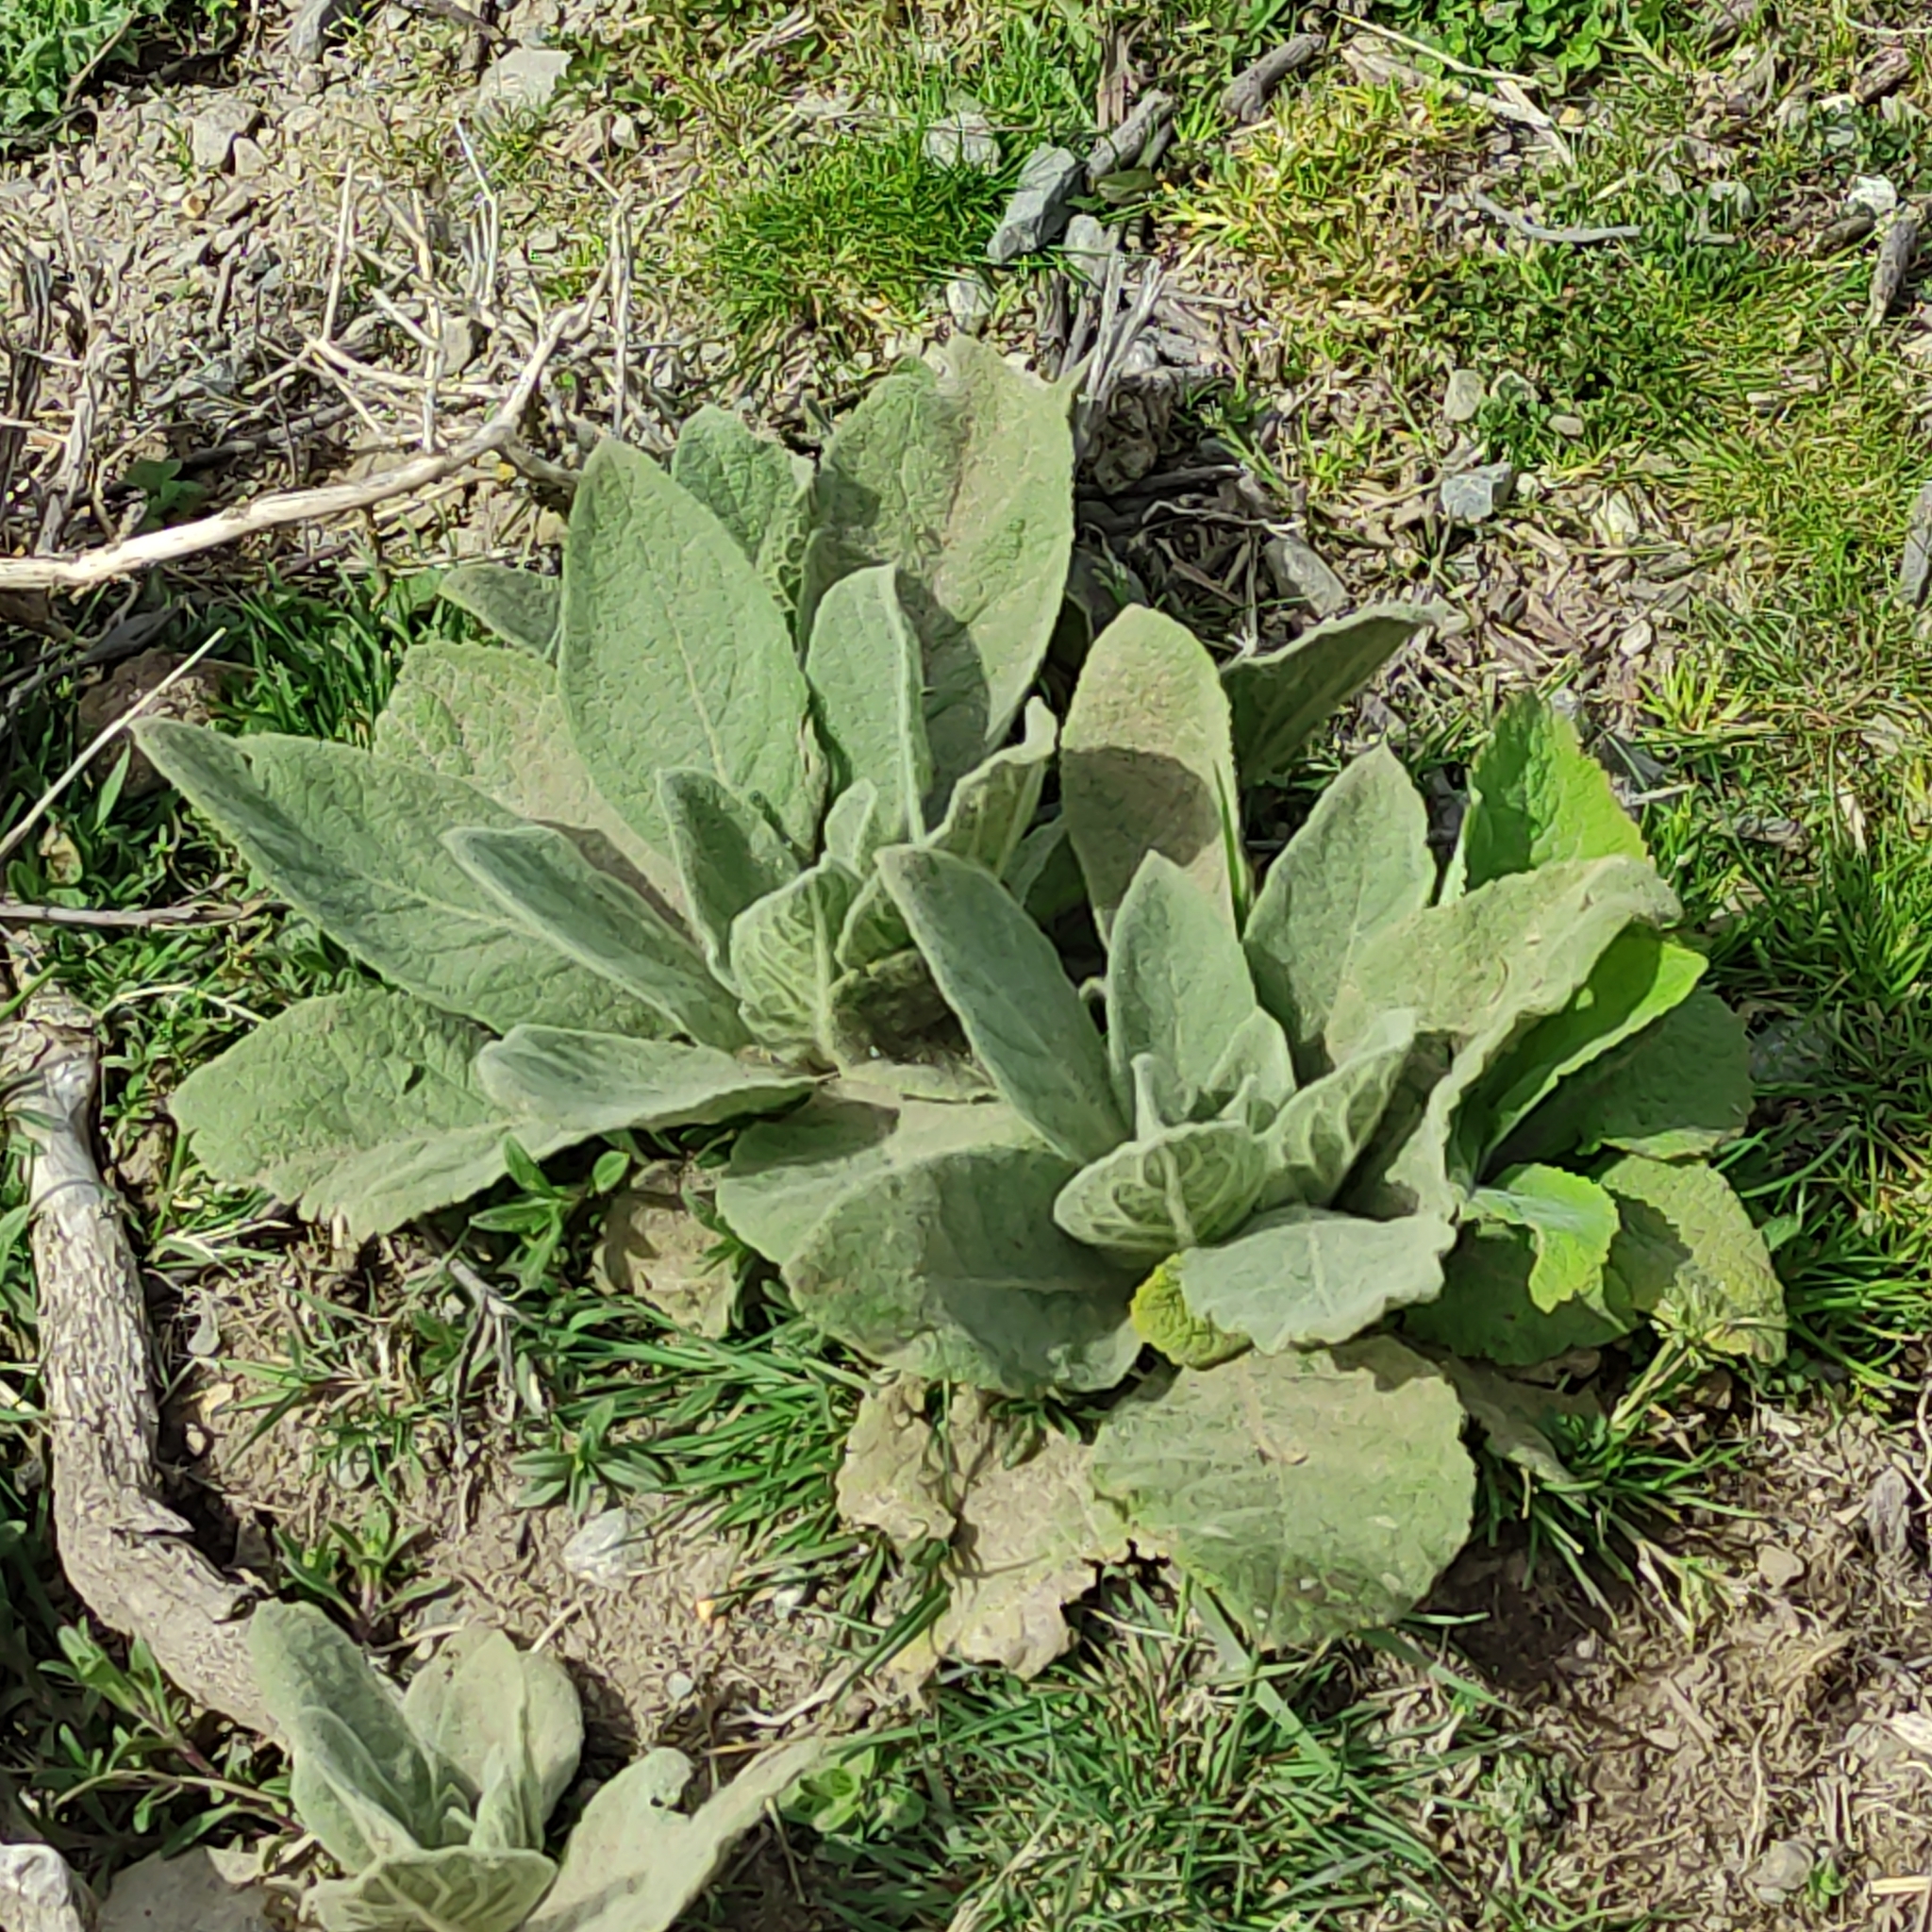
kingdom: Plantae
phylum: Tracheophyta
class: Magnoliopsida
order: Lamiales
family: Scrophulariaceae
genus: Verbascum
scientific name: Verbascum thapsus
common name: Common mullein
